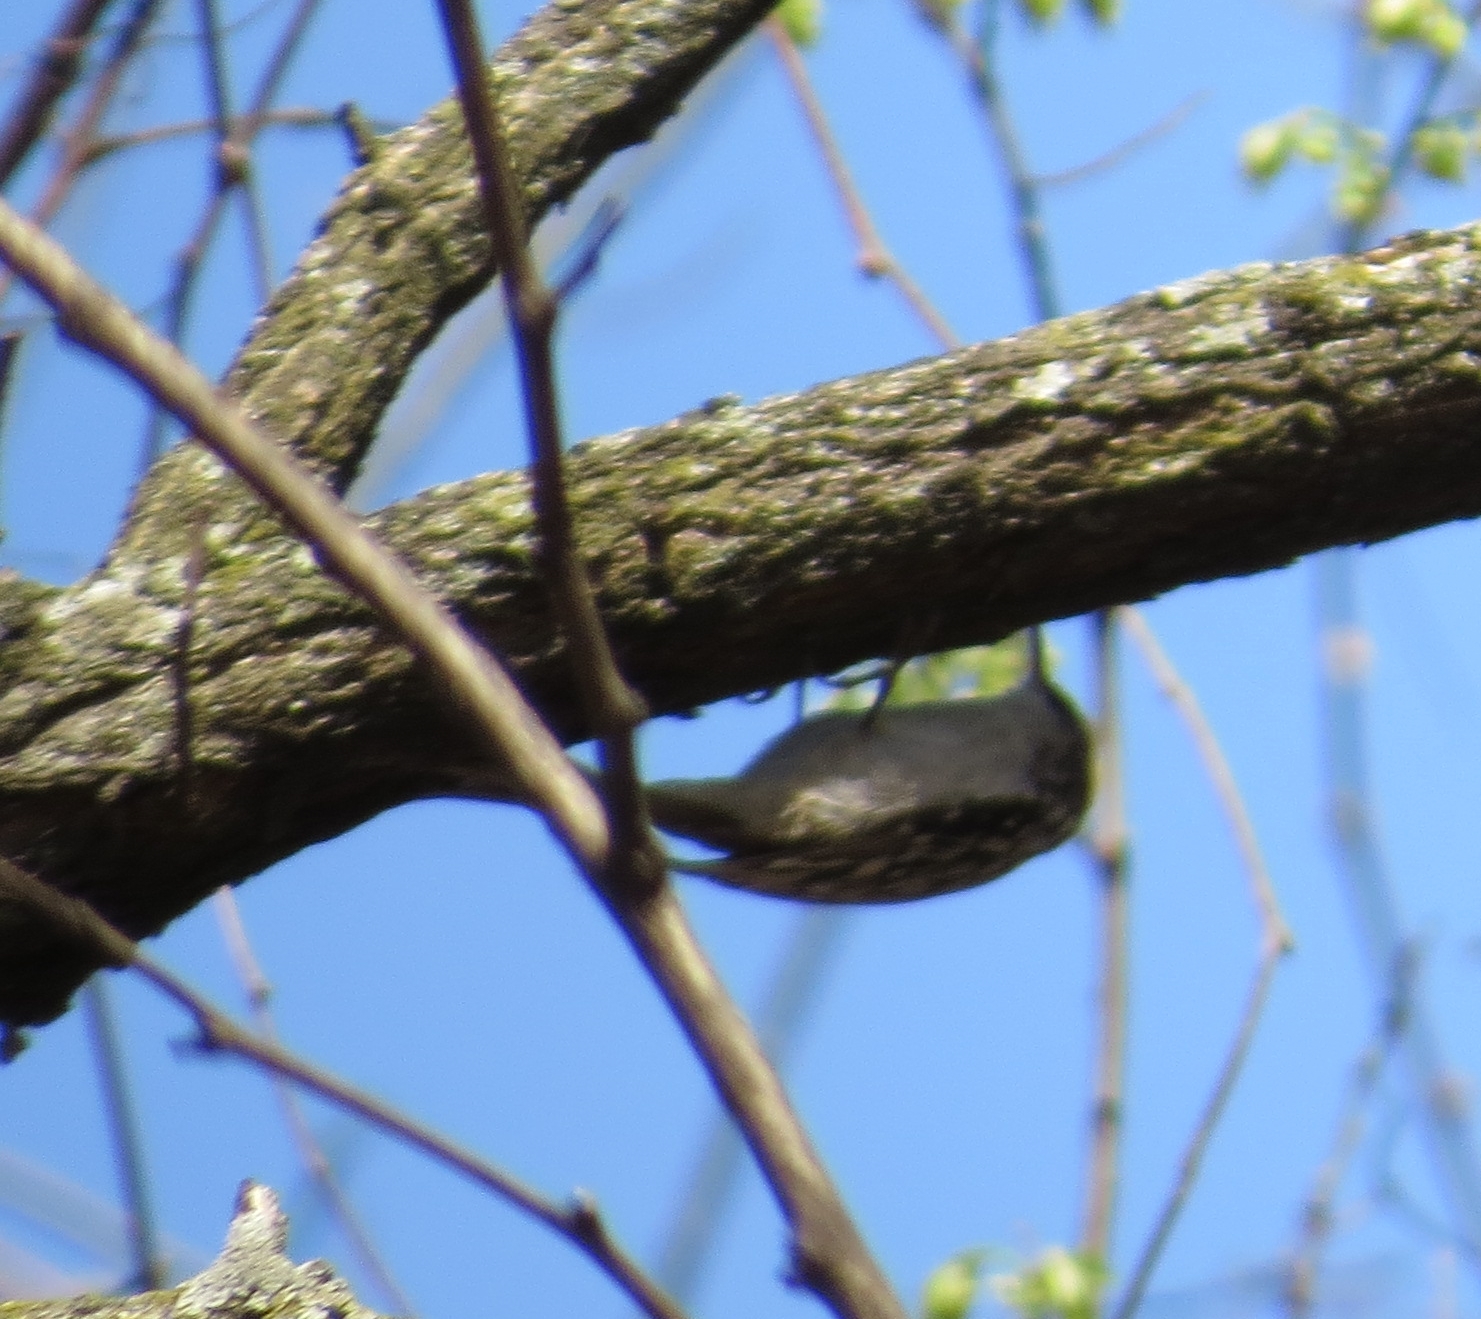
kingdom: Animalia
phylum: Chordata
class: Aves
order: Passeriformes
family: Certhiidae
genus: Certhia
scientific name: Certhia americana
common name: Brown creeper
